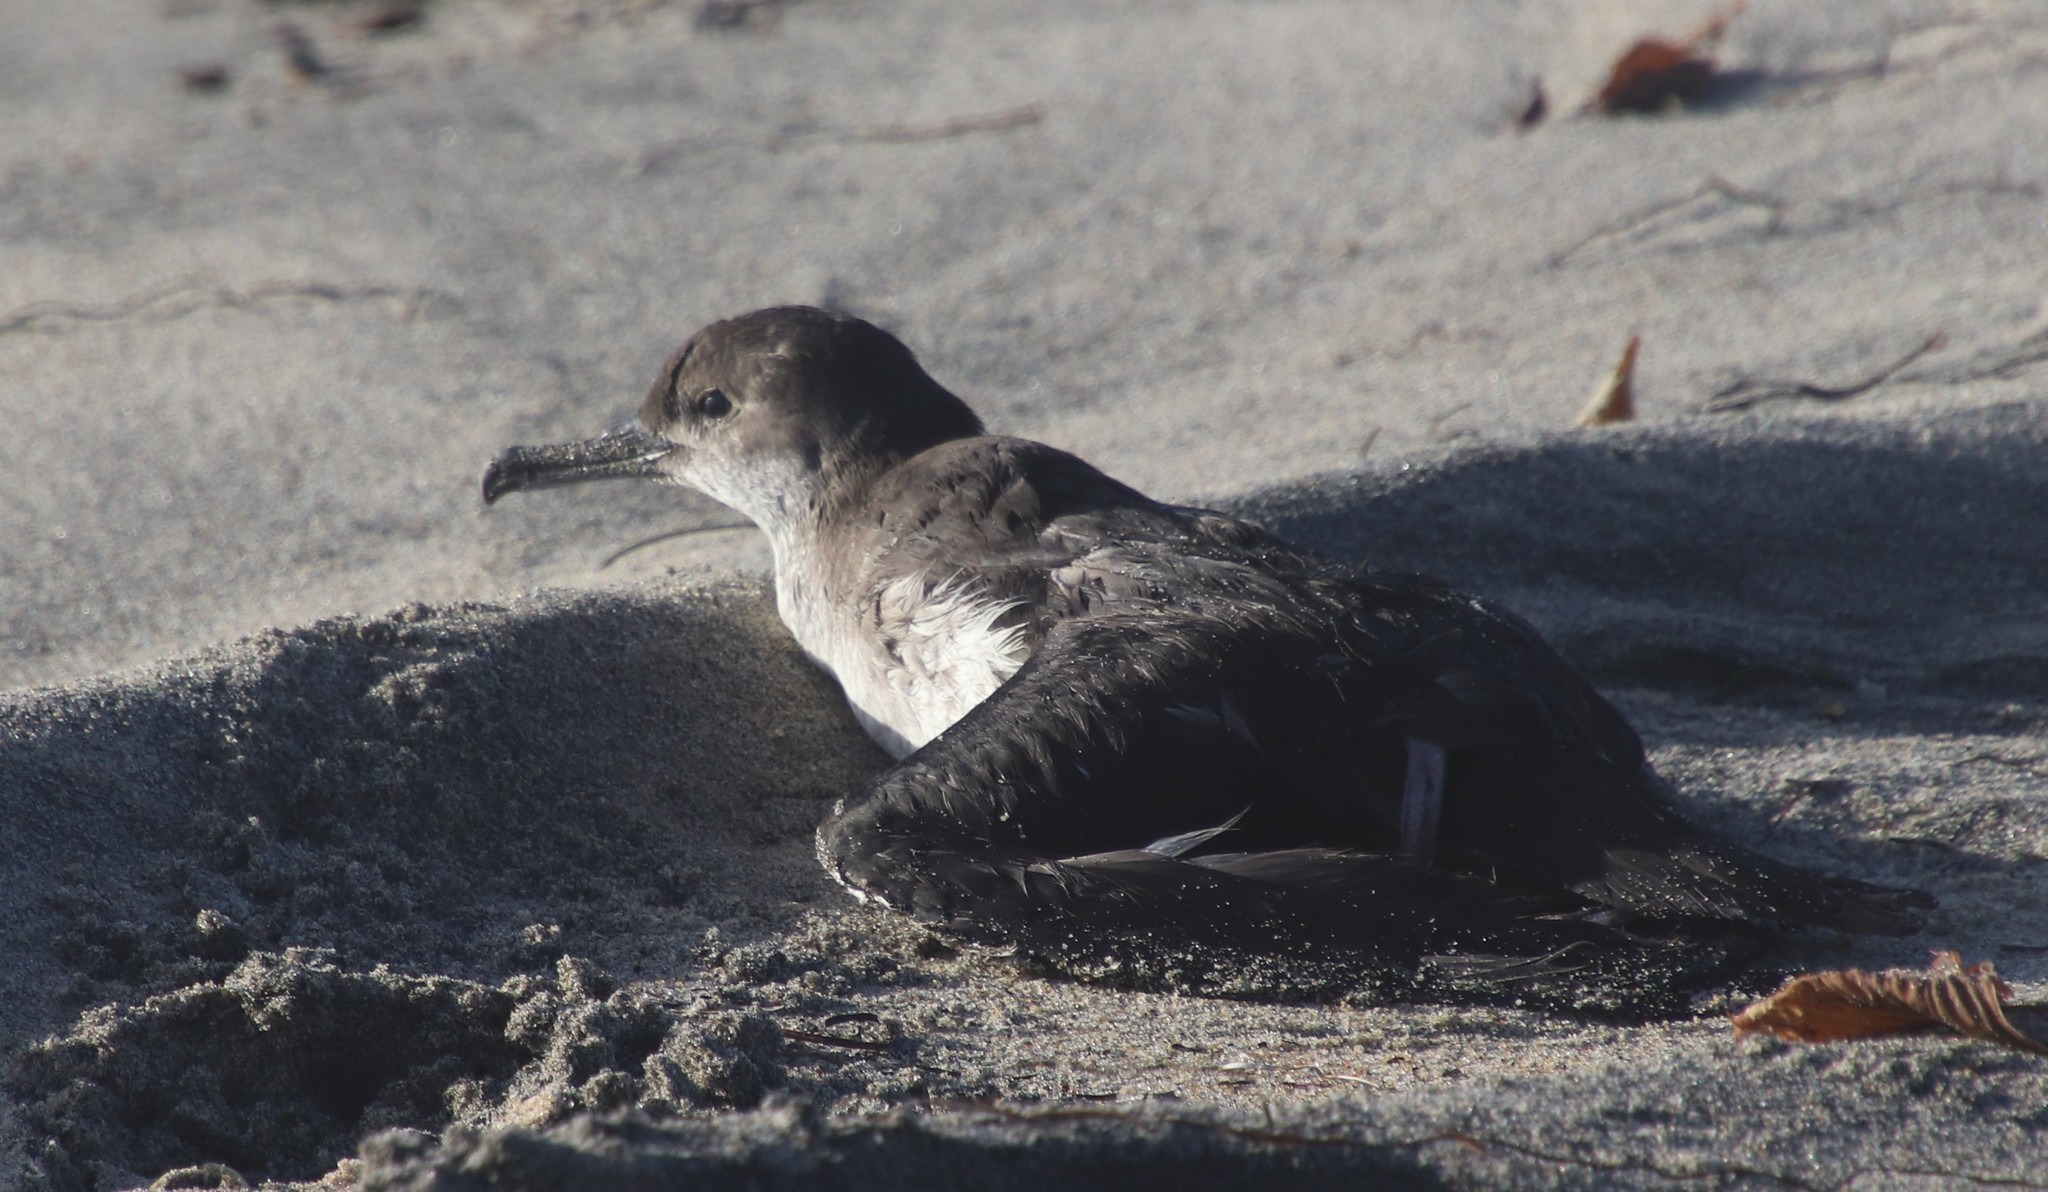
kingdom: Animalia
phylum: Chordata
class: Aves
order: Procellariiformes
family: Procellariidae
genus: Puffinus
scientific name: Puffinus opisthomelas
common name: Black-vented shearwater
